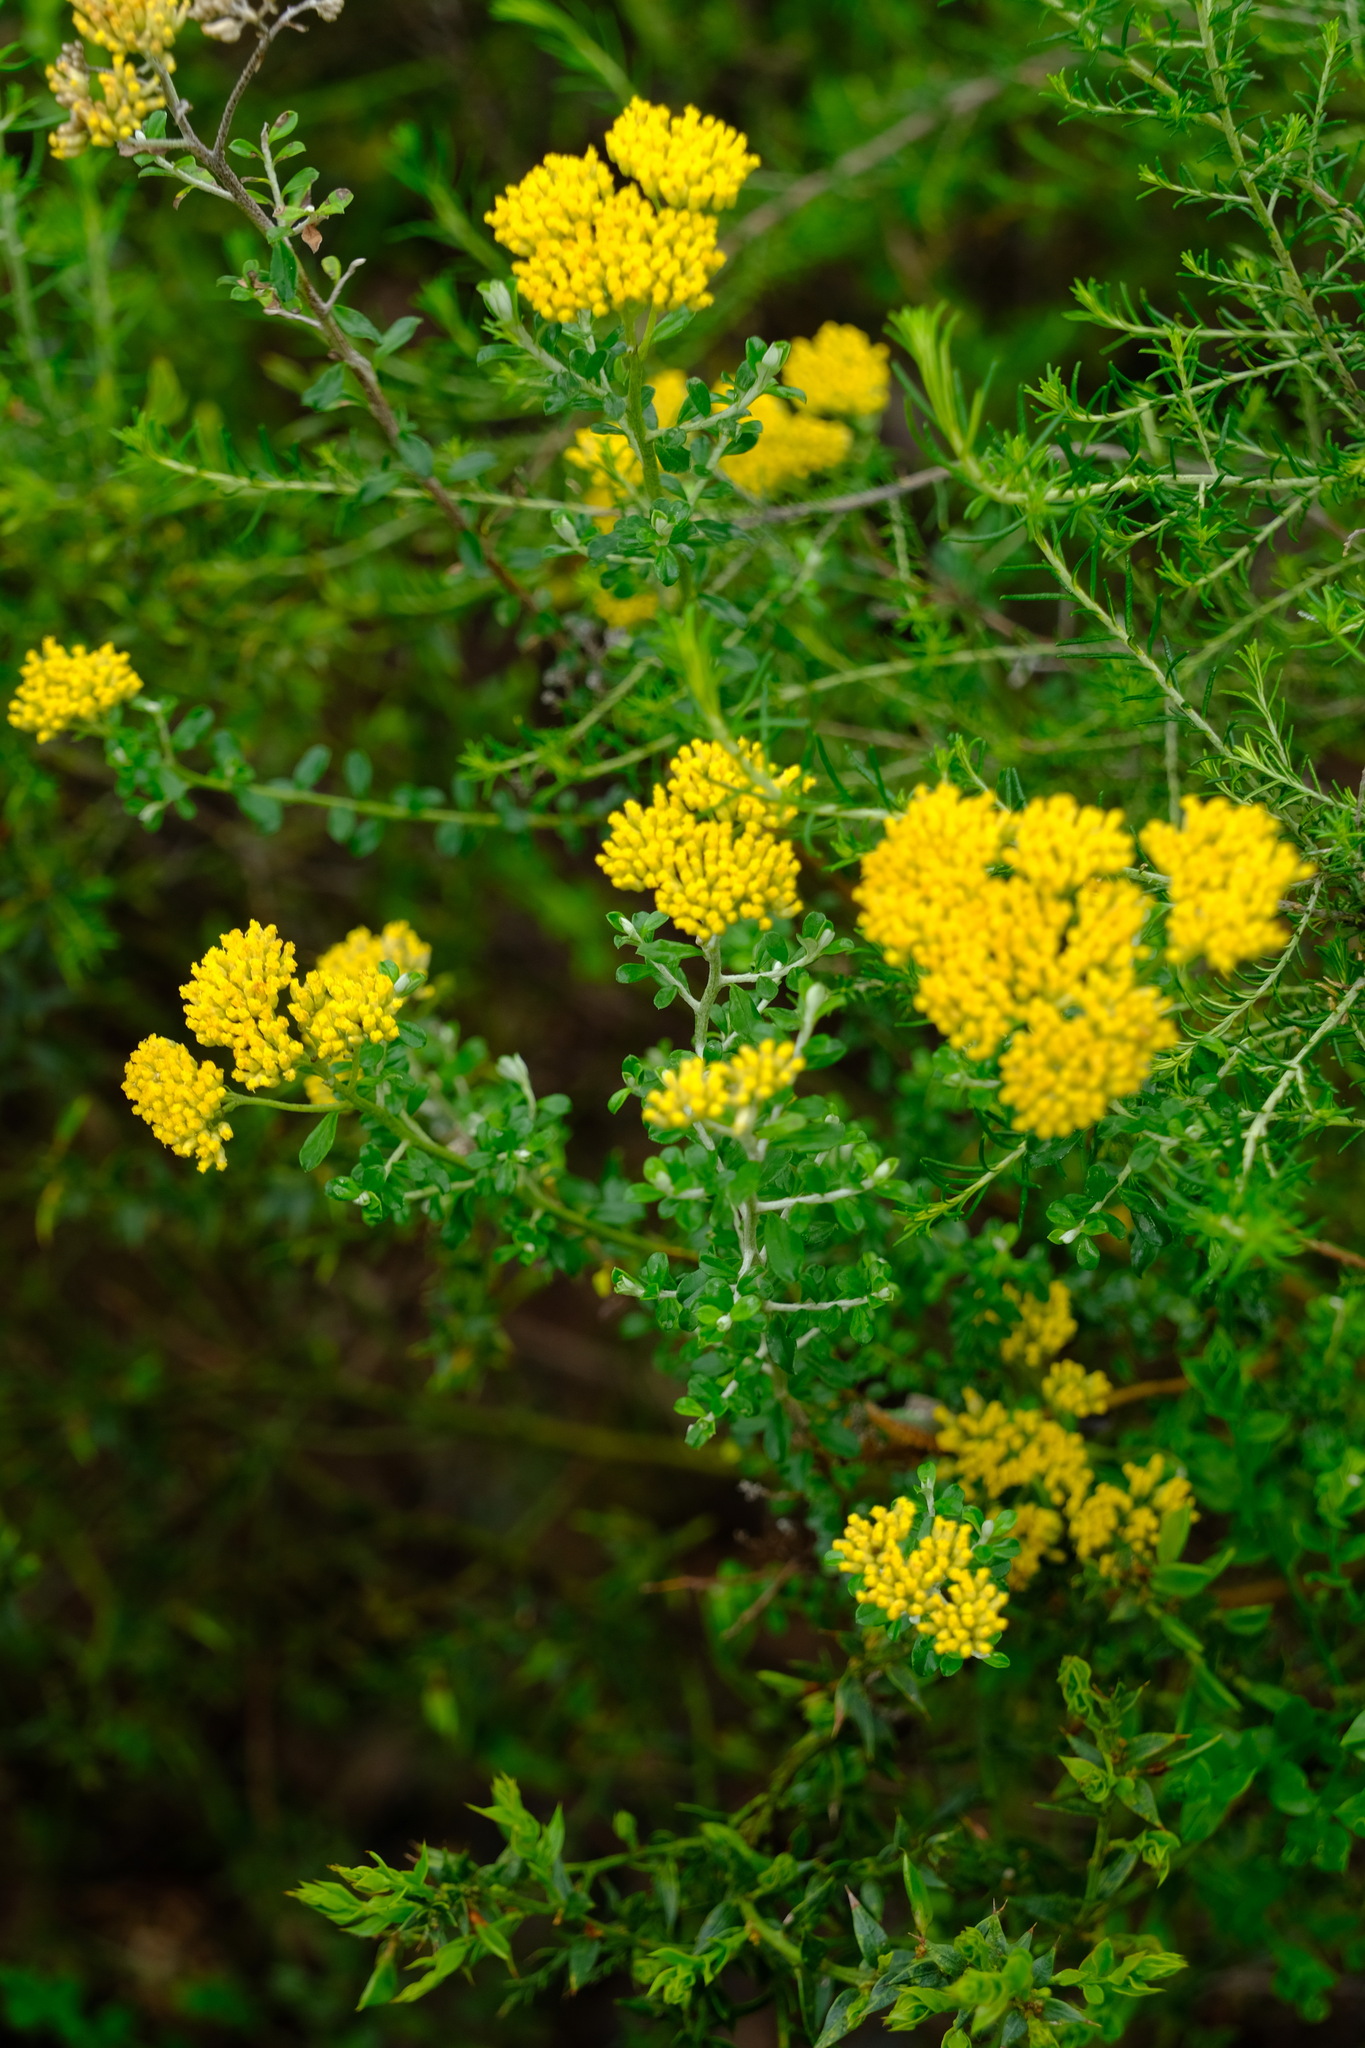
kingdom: Plantae
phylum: Tracheophyta
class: Magnoliopsida
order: Asterales
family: Asteraceae
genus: Ozothamnus
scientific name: Ozothamnus obcordatus
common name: Grey everlasting
